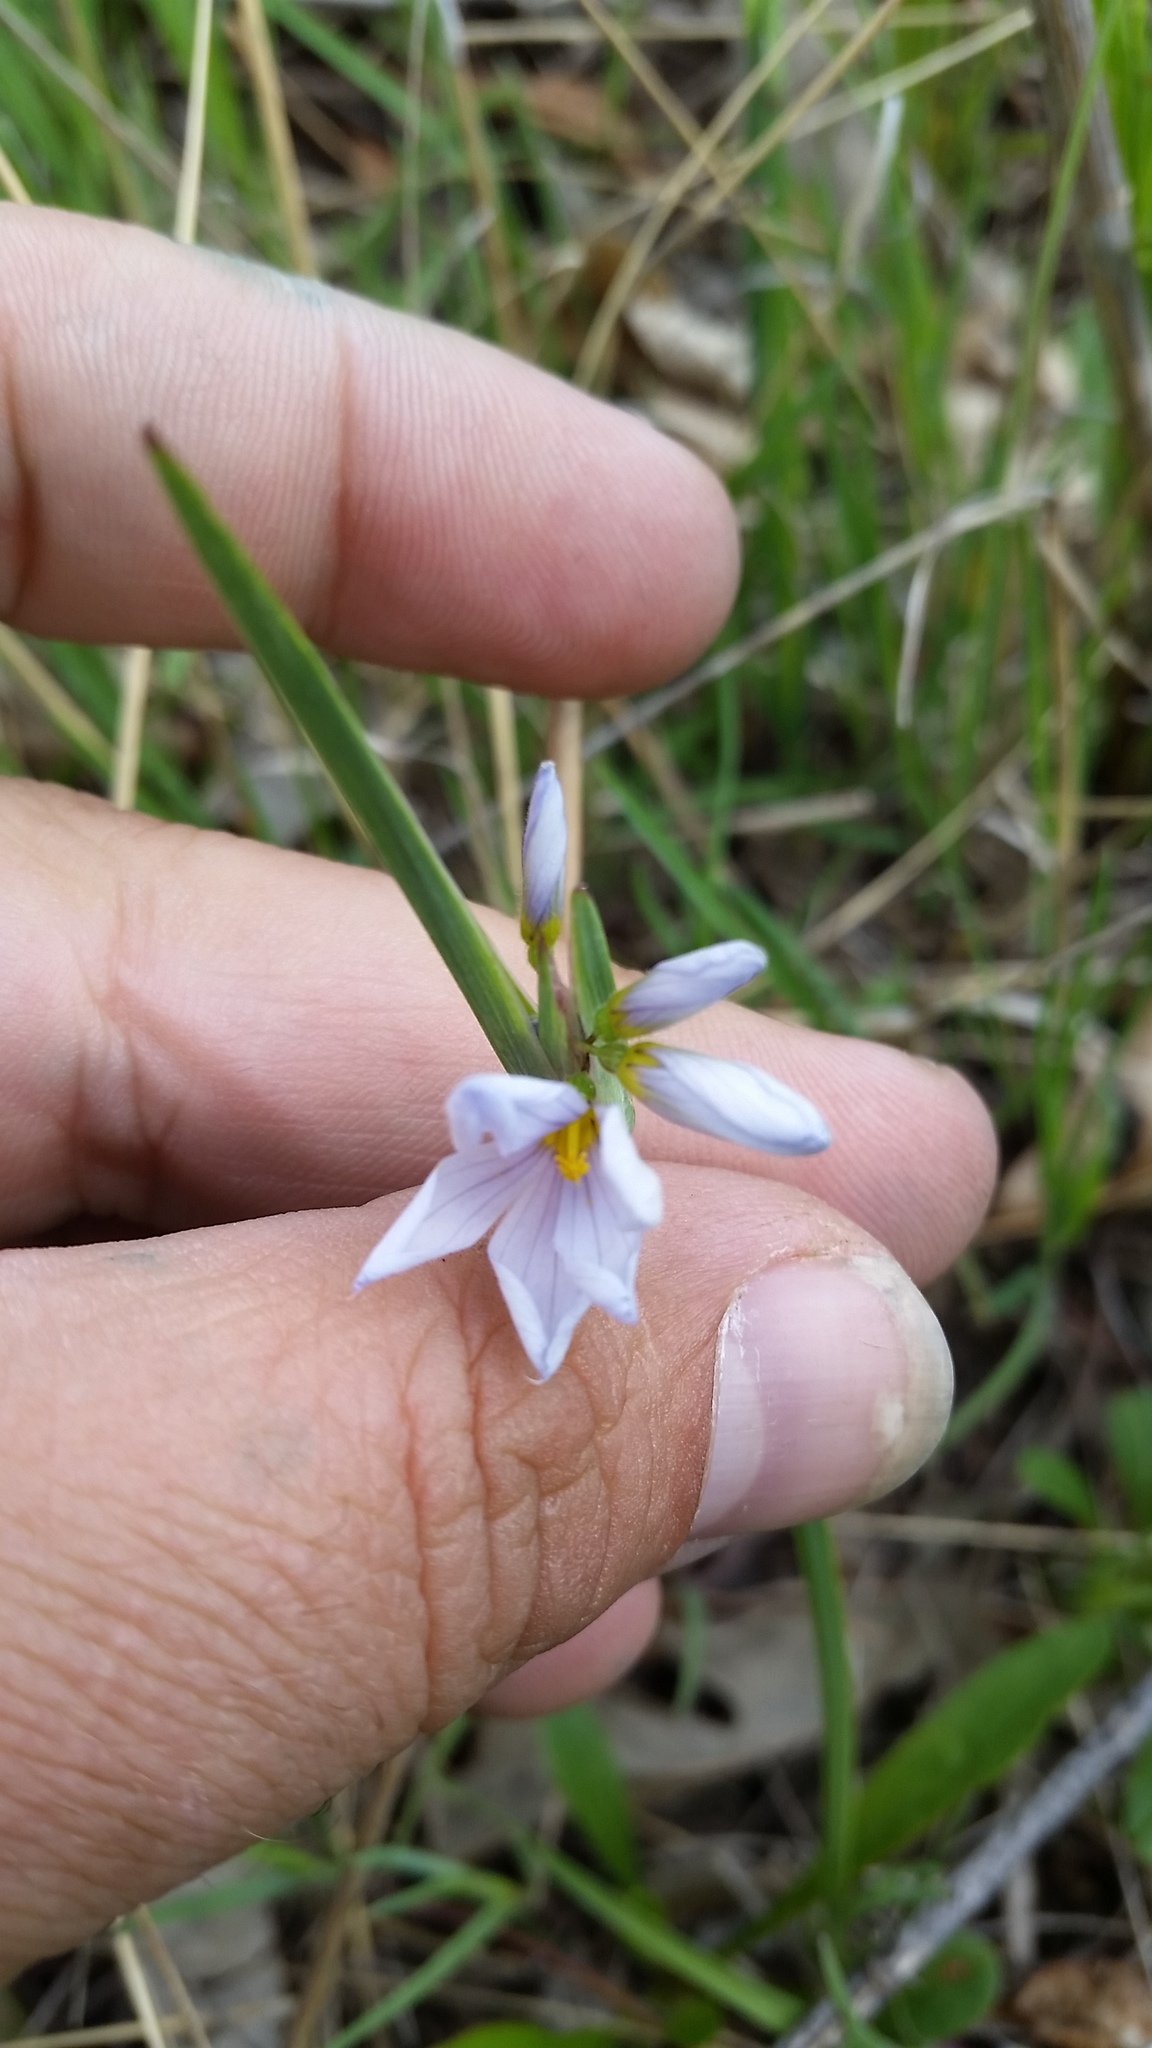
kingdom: Plantae
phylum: Tracheophyta
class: Liliopsida
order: Asparagales
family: Iridaceae
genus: Sisyrinchium
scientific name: Sisyrinchium albidum
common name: Pale blue-eyed-grass
